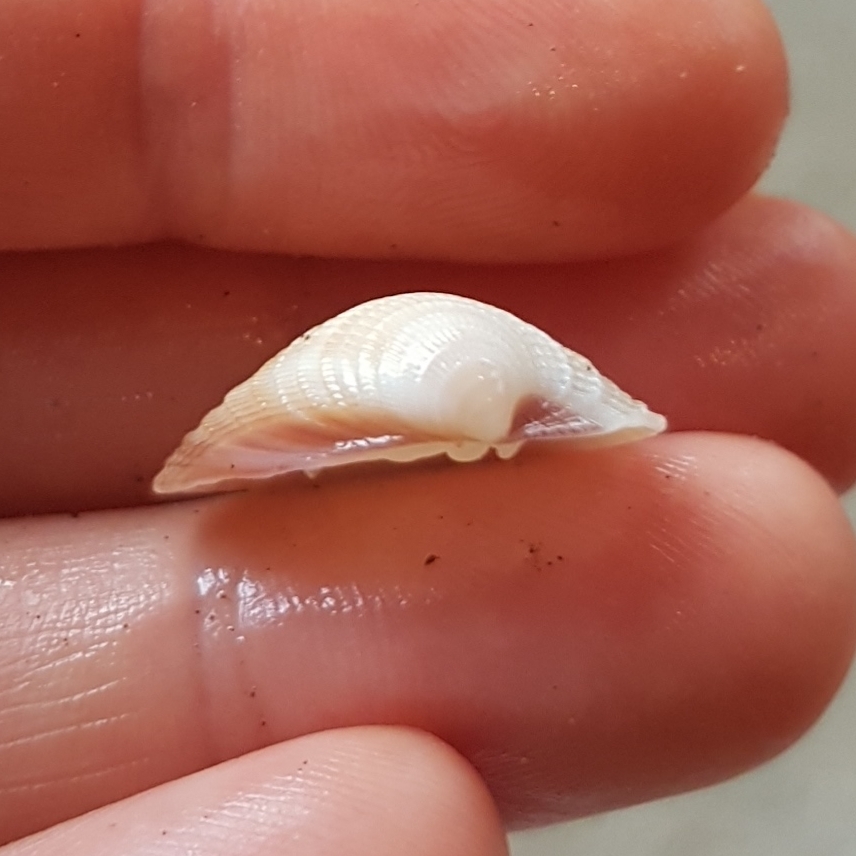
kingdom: Animalia
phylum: Mollusca
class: Bivalvia
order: Venerida
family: Veneridae
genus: Chionopsis
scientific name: Chionopsis amathusia
